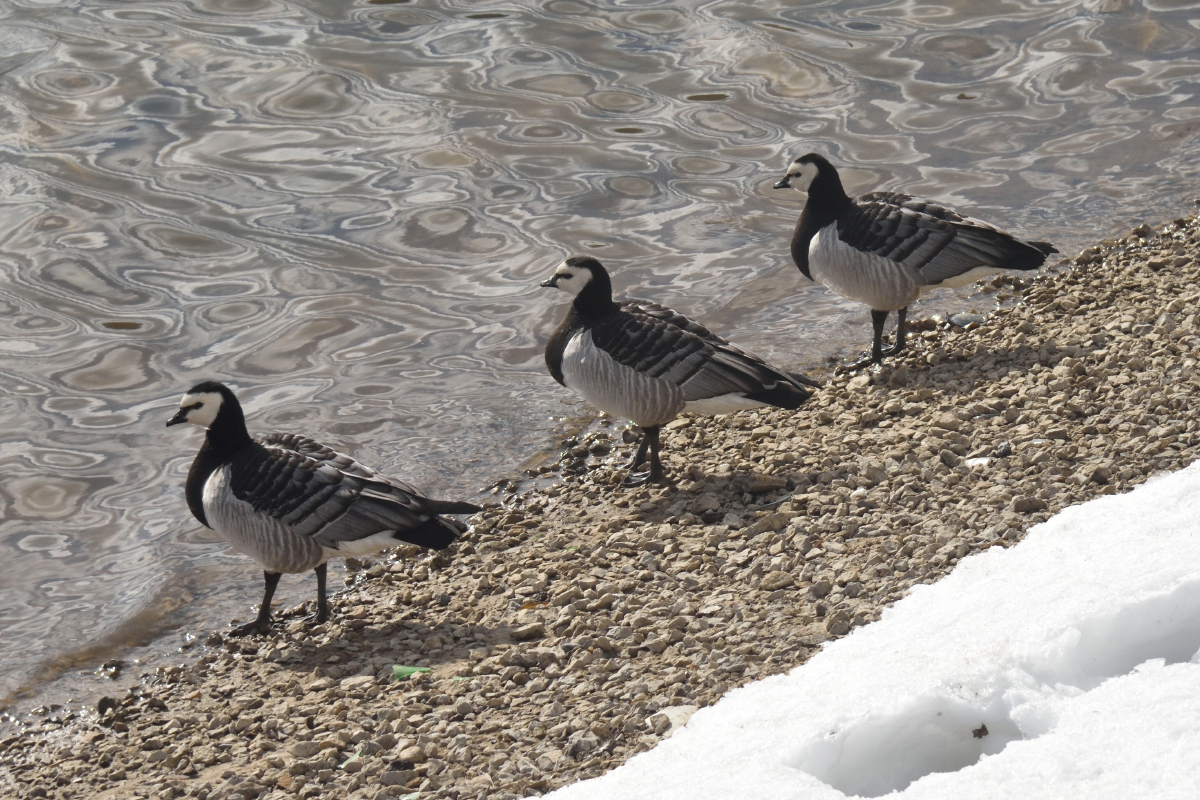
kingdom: Animalia
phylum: Chordata
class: Aves
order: Anseriformes
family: Anatidae
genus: Branta
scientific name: Branta leucopsis
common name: Barnacle goose
